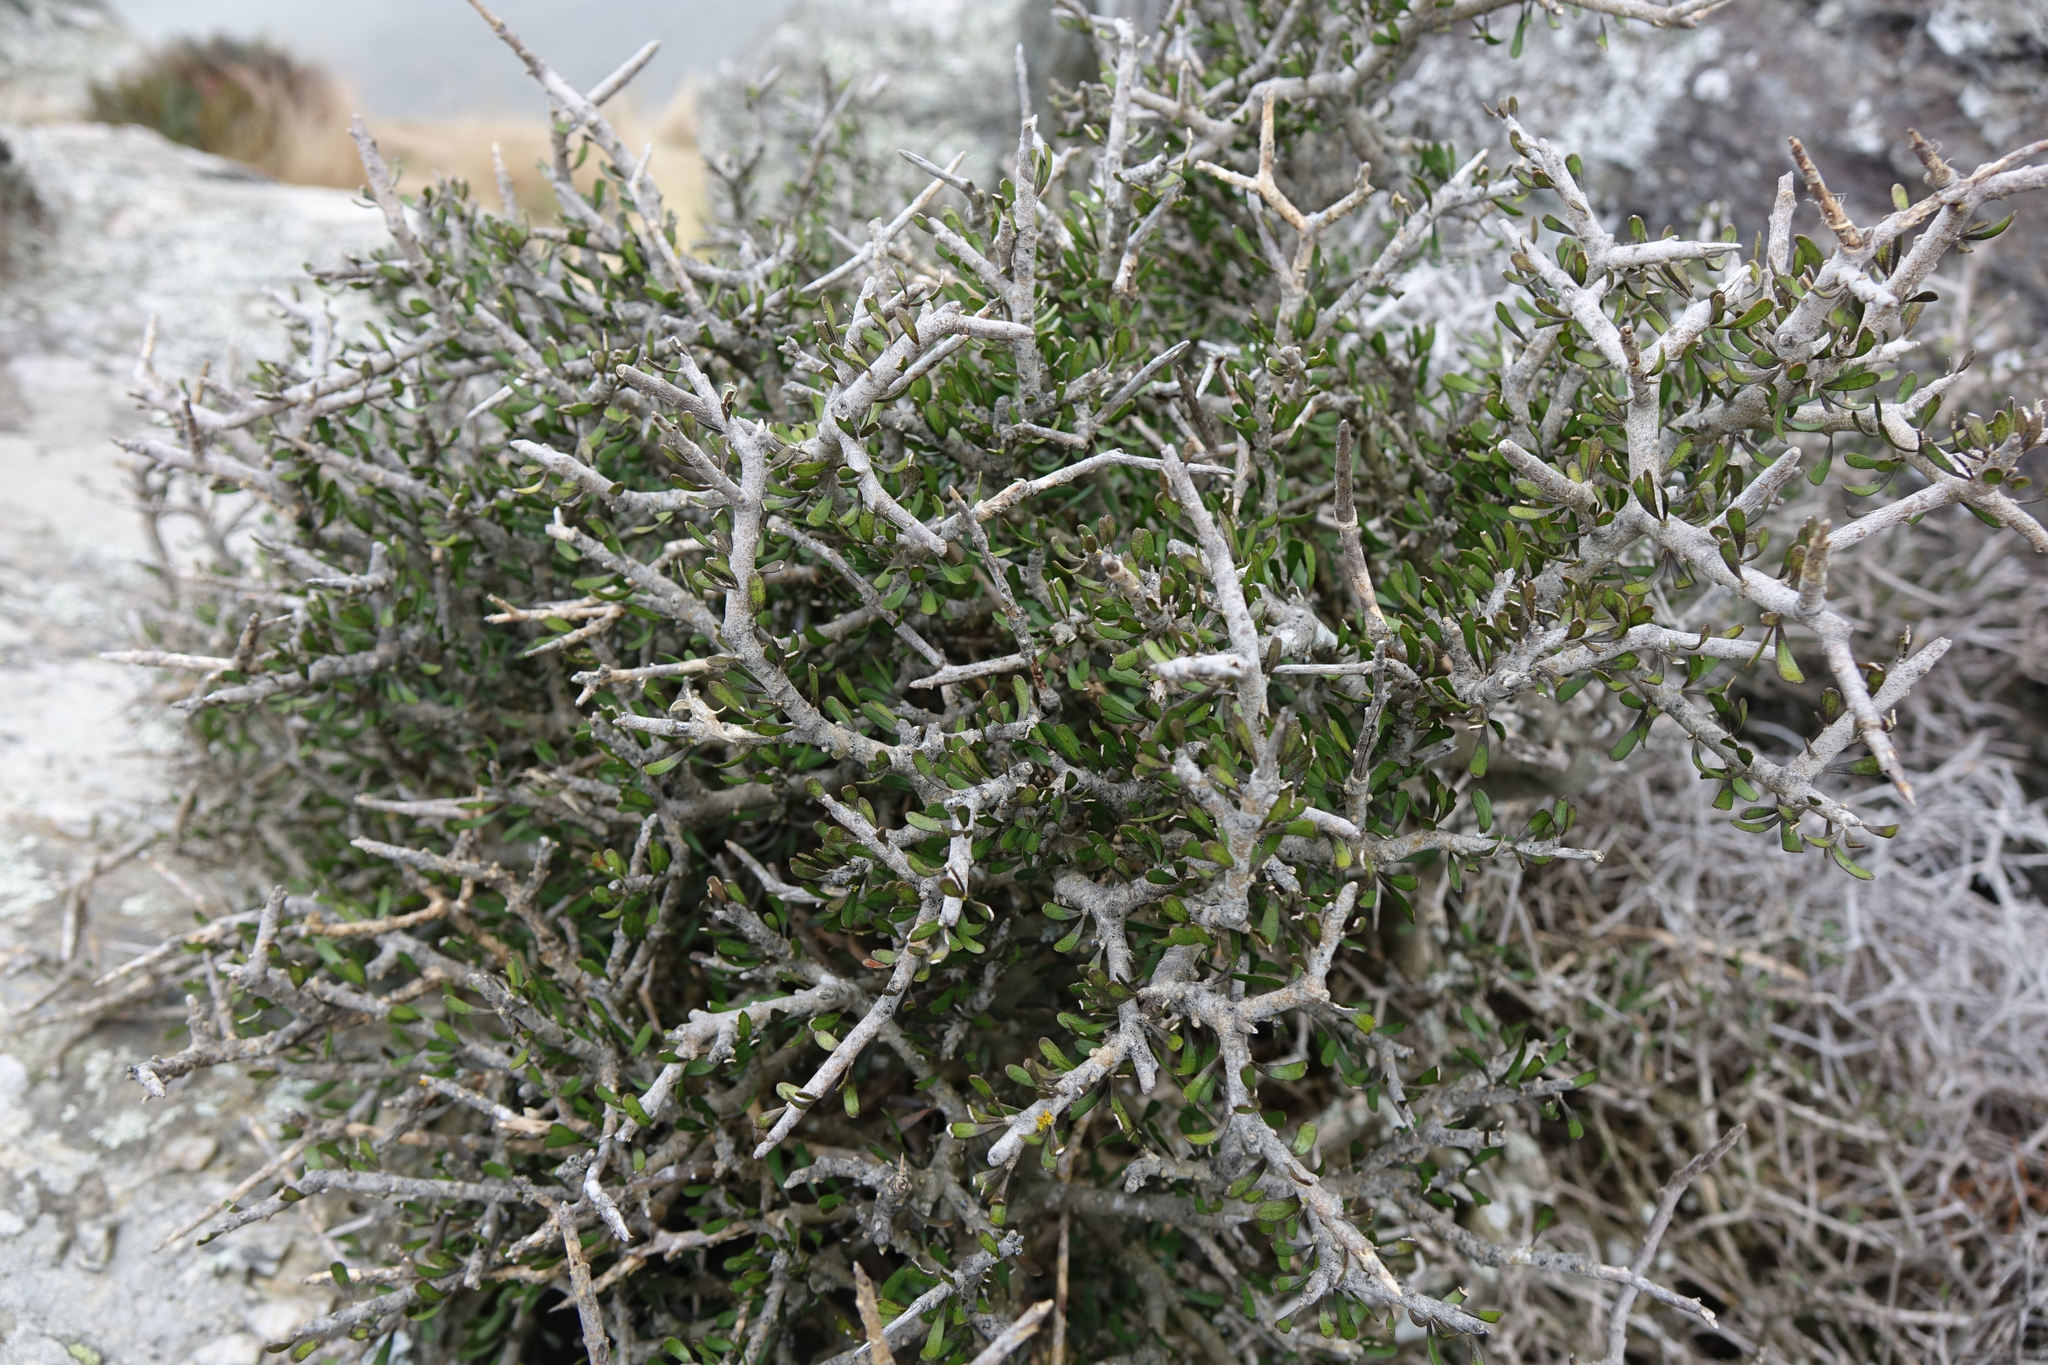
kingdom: Plantae
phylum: Tracheophyta
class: Magnoliopsida
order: Malpighiales
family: Violaceae
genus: Melicytus
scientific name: Melicytus alpinus
